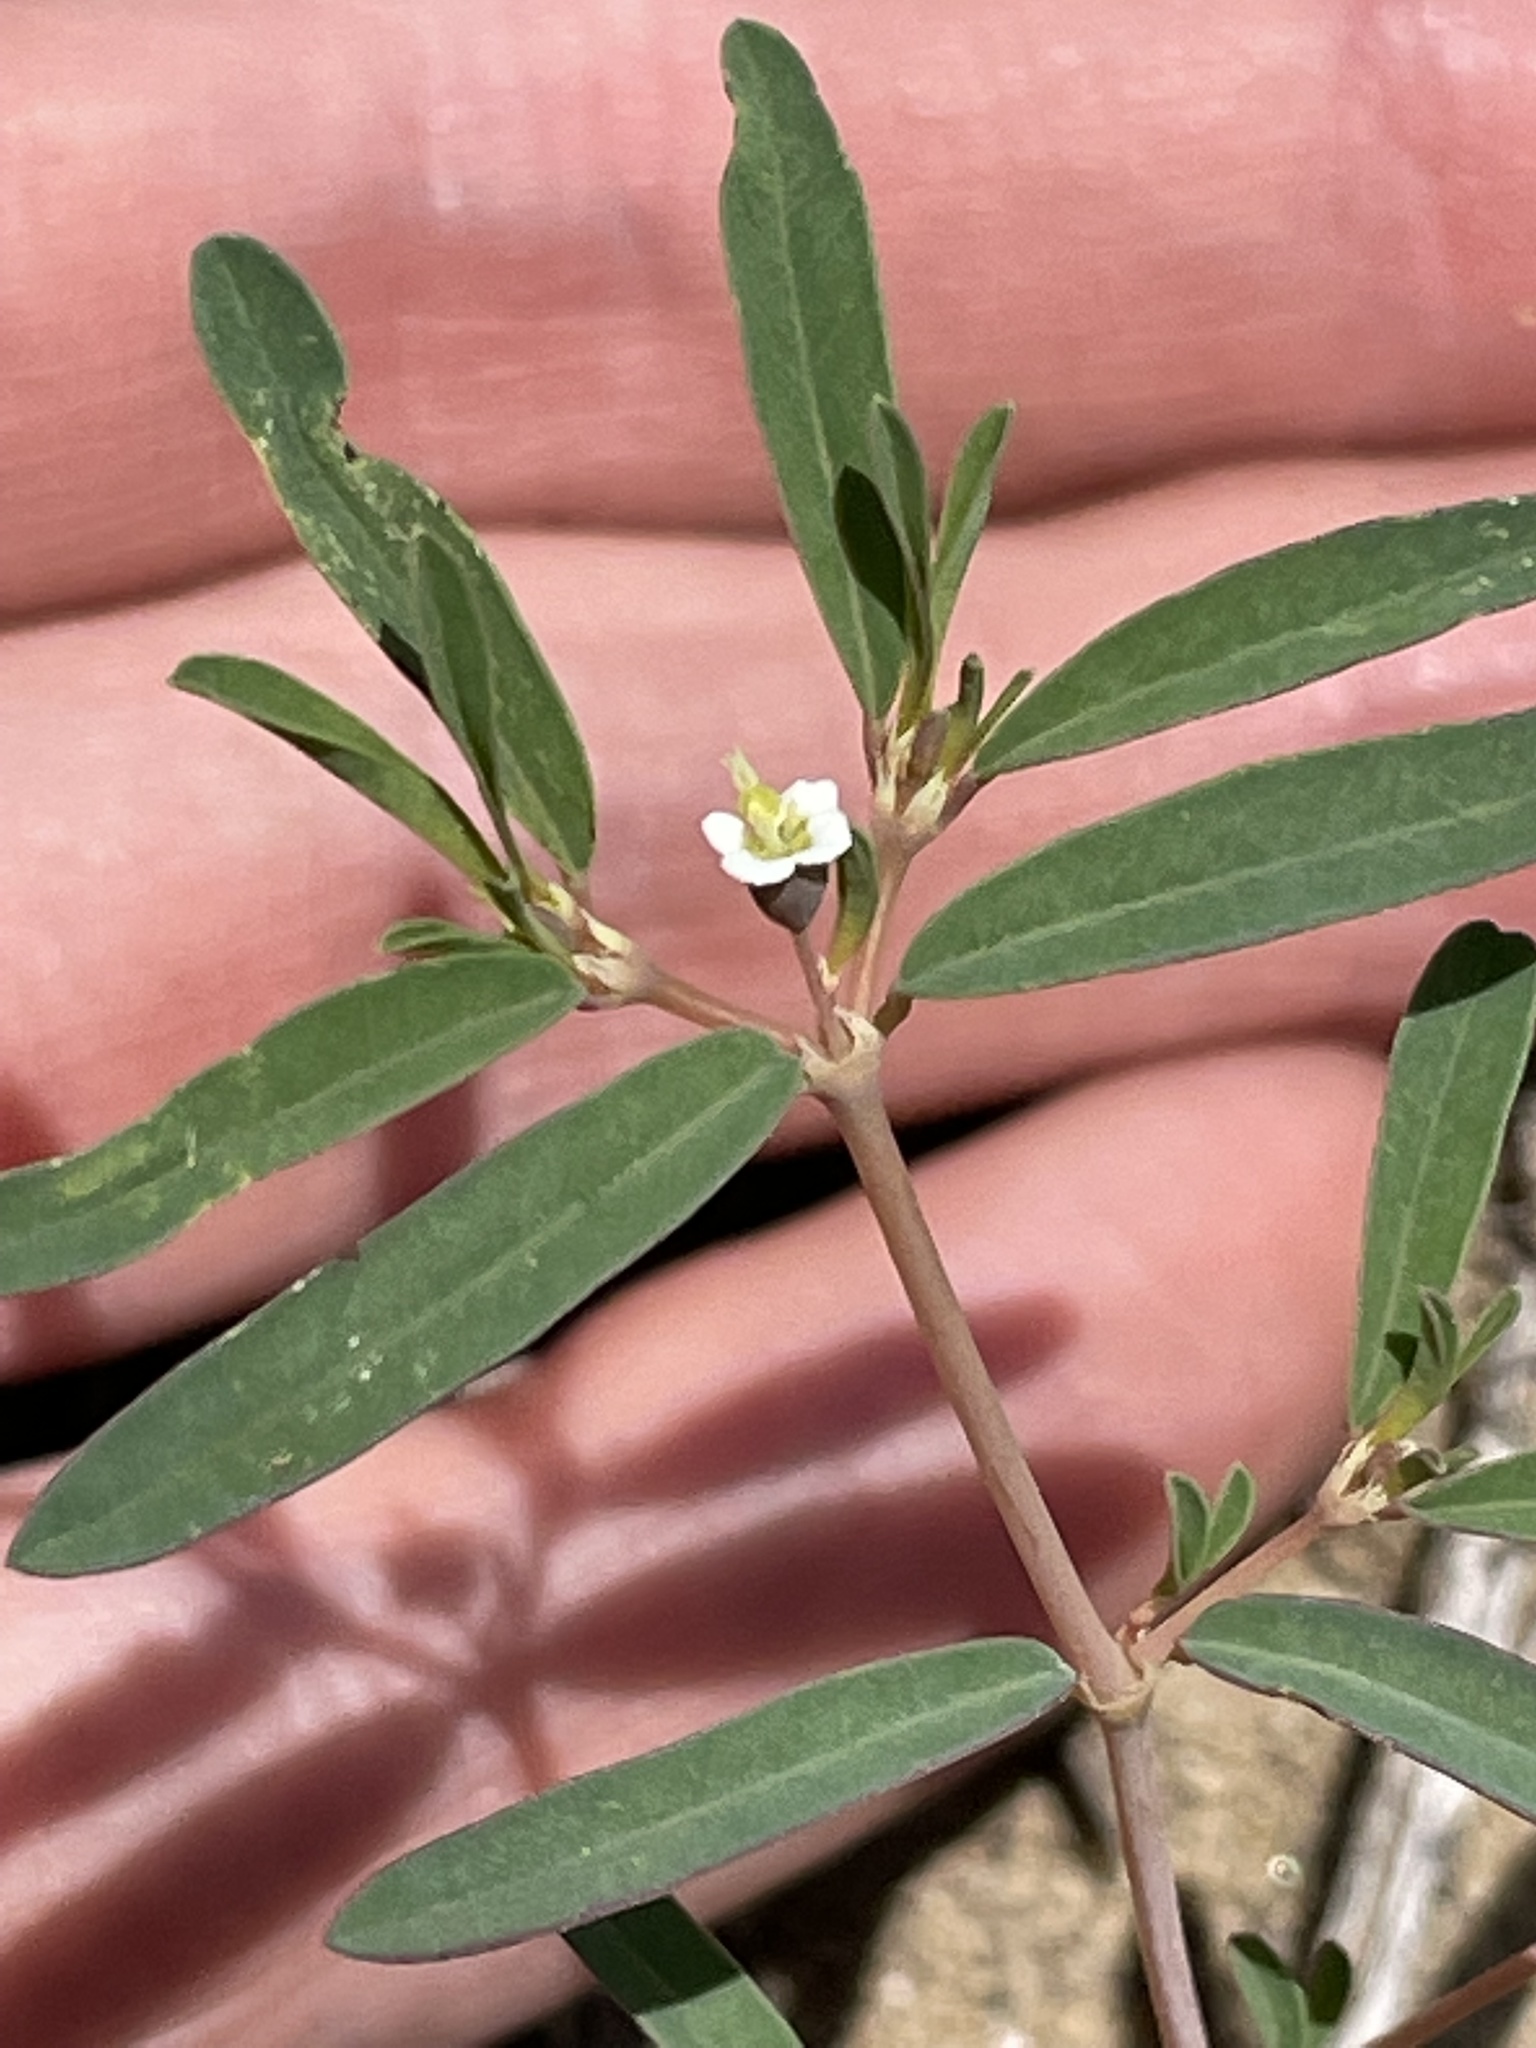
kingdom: Plantae
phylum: Tracheophyta
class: Magnoliopsida
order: Malpighiales
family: Euphorbiaceae
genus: Euphorbia
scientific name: Euphorbia missurica
